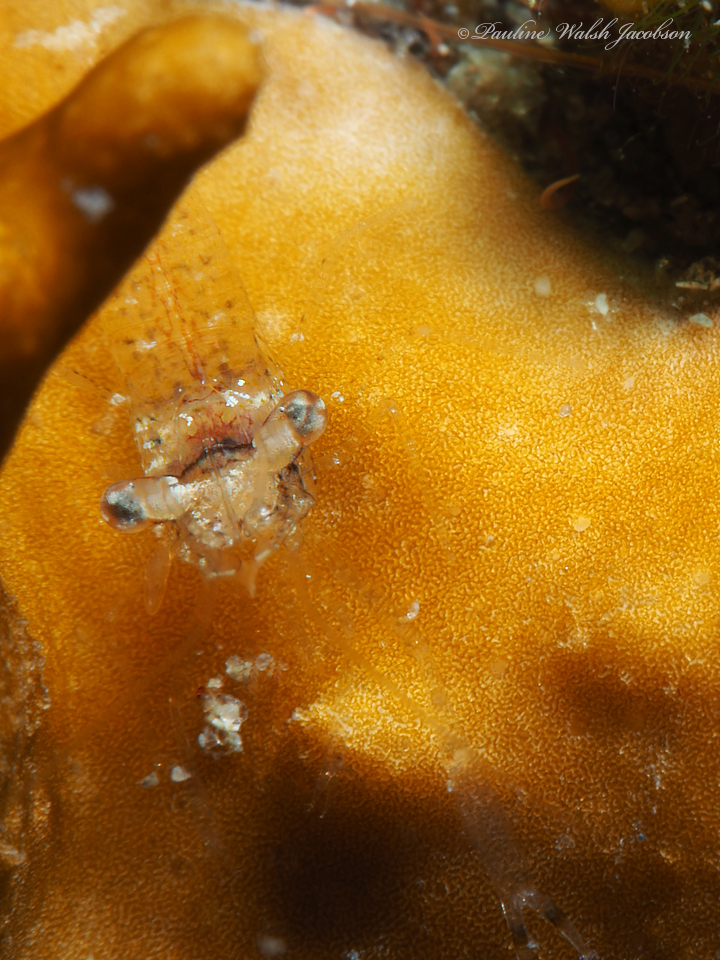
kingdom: Animalia
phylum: Arthropoda
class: Malacostraca
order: Decapoda
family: Palaemonidae
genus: Palaemonella
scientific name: Palaemonella
